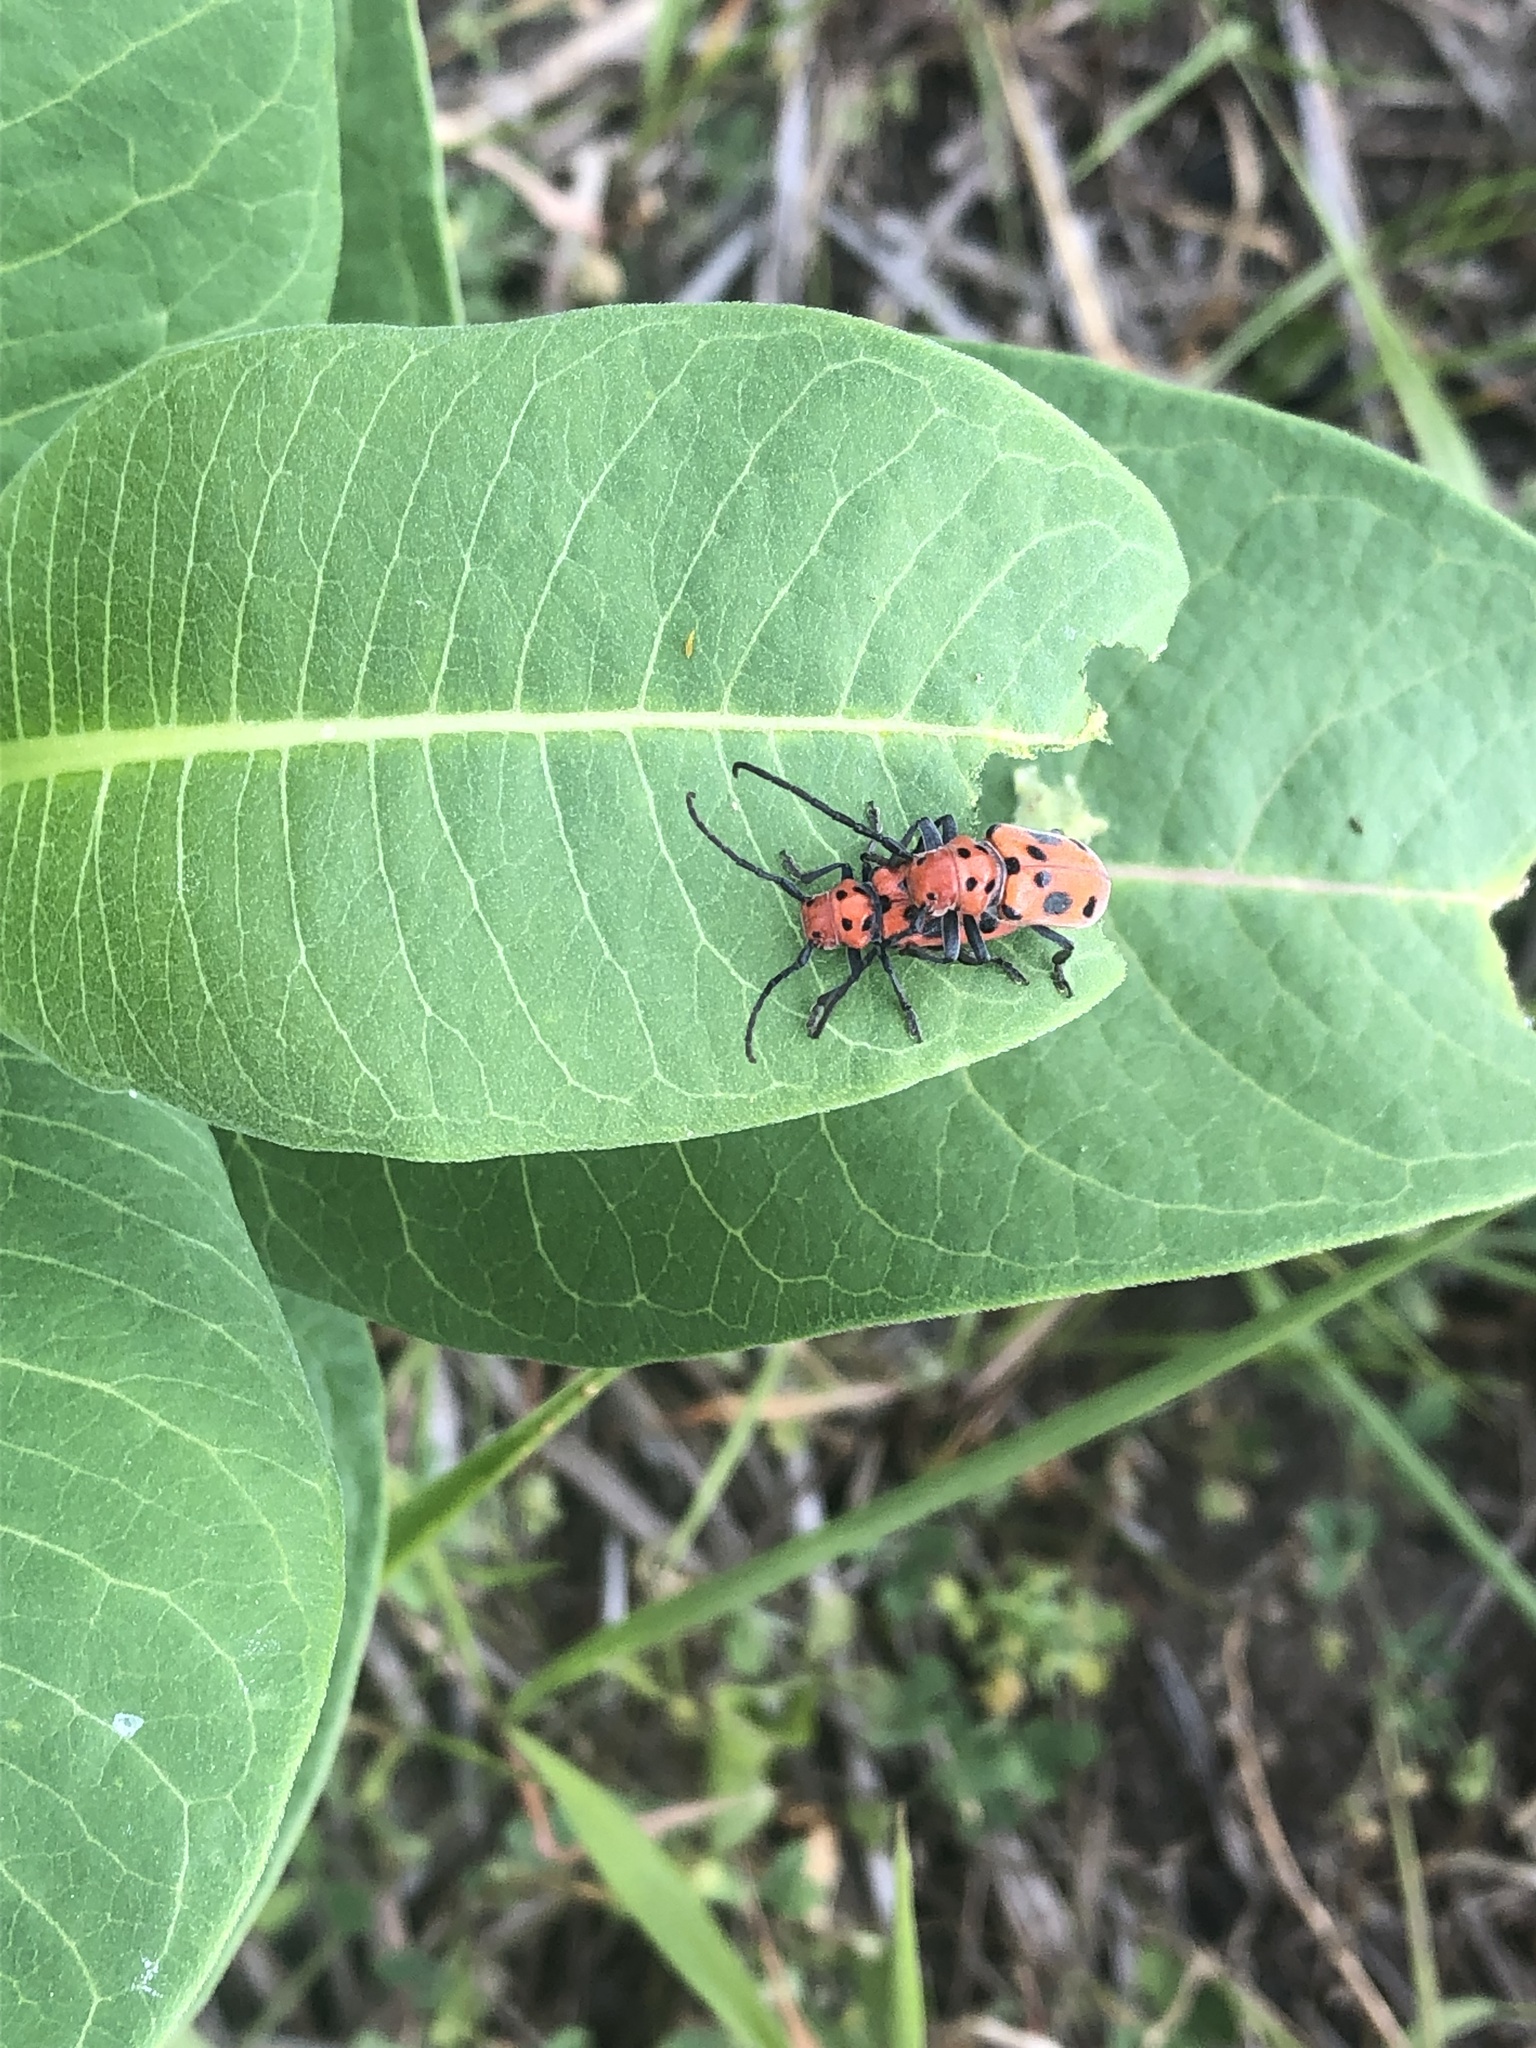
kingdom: Animalia
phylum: Arthropoda
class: Insecta
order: Coleoptera
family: Cerambycidae
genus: Tetraopes
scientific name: Tetraopes tetrophthalmus
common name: Red milkweed beetle
